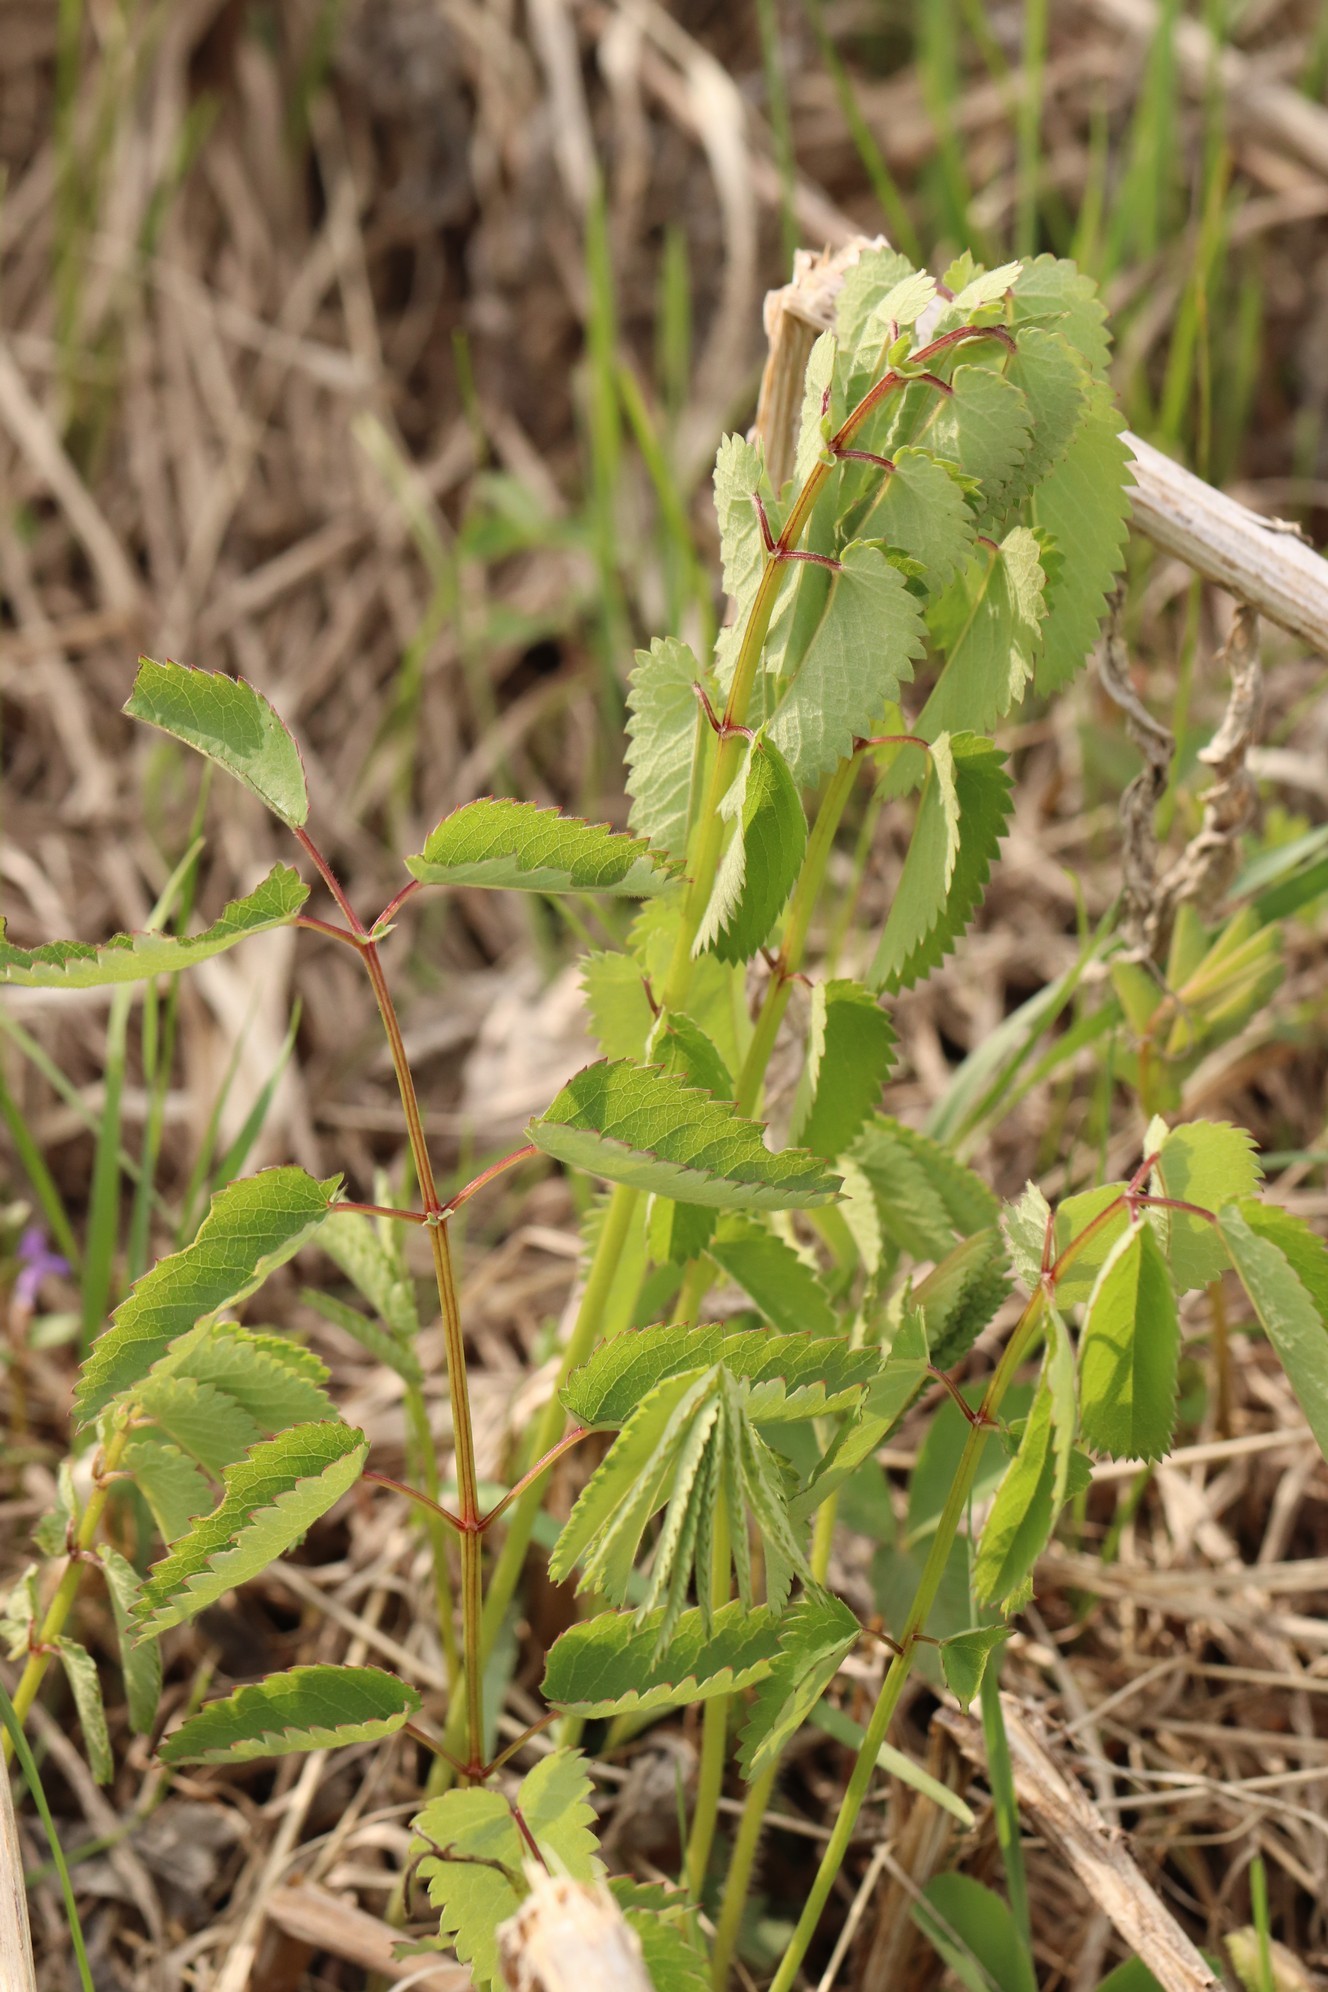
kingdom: Plantae
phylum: Tracheophyta
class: Magnoliopsida
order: Rosales
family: Rosaceae
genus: Sanguisorba
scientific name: Sanguisorba officinalis
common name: Great burnet
